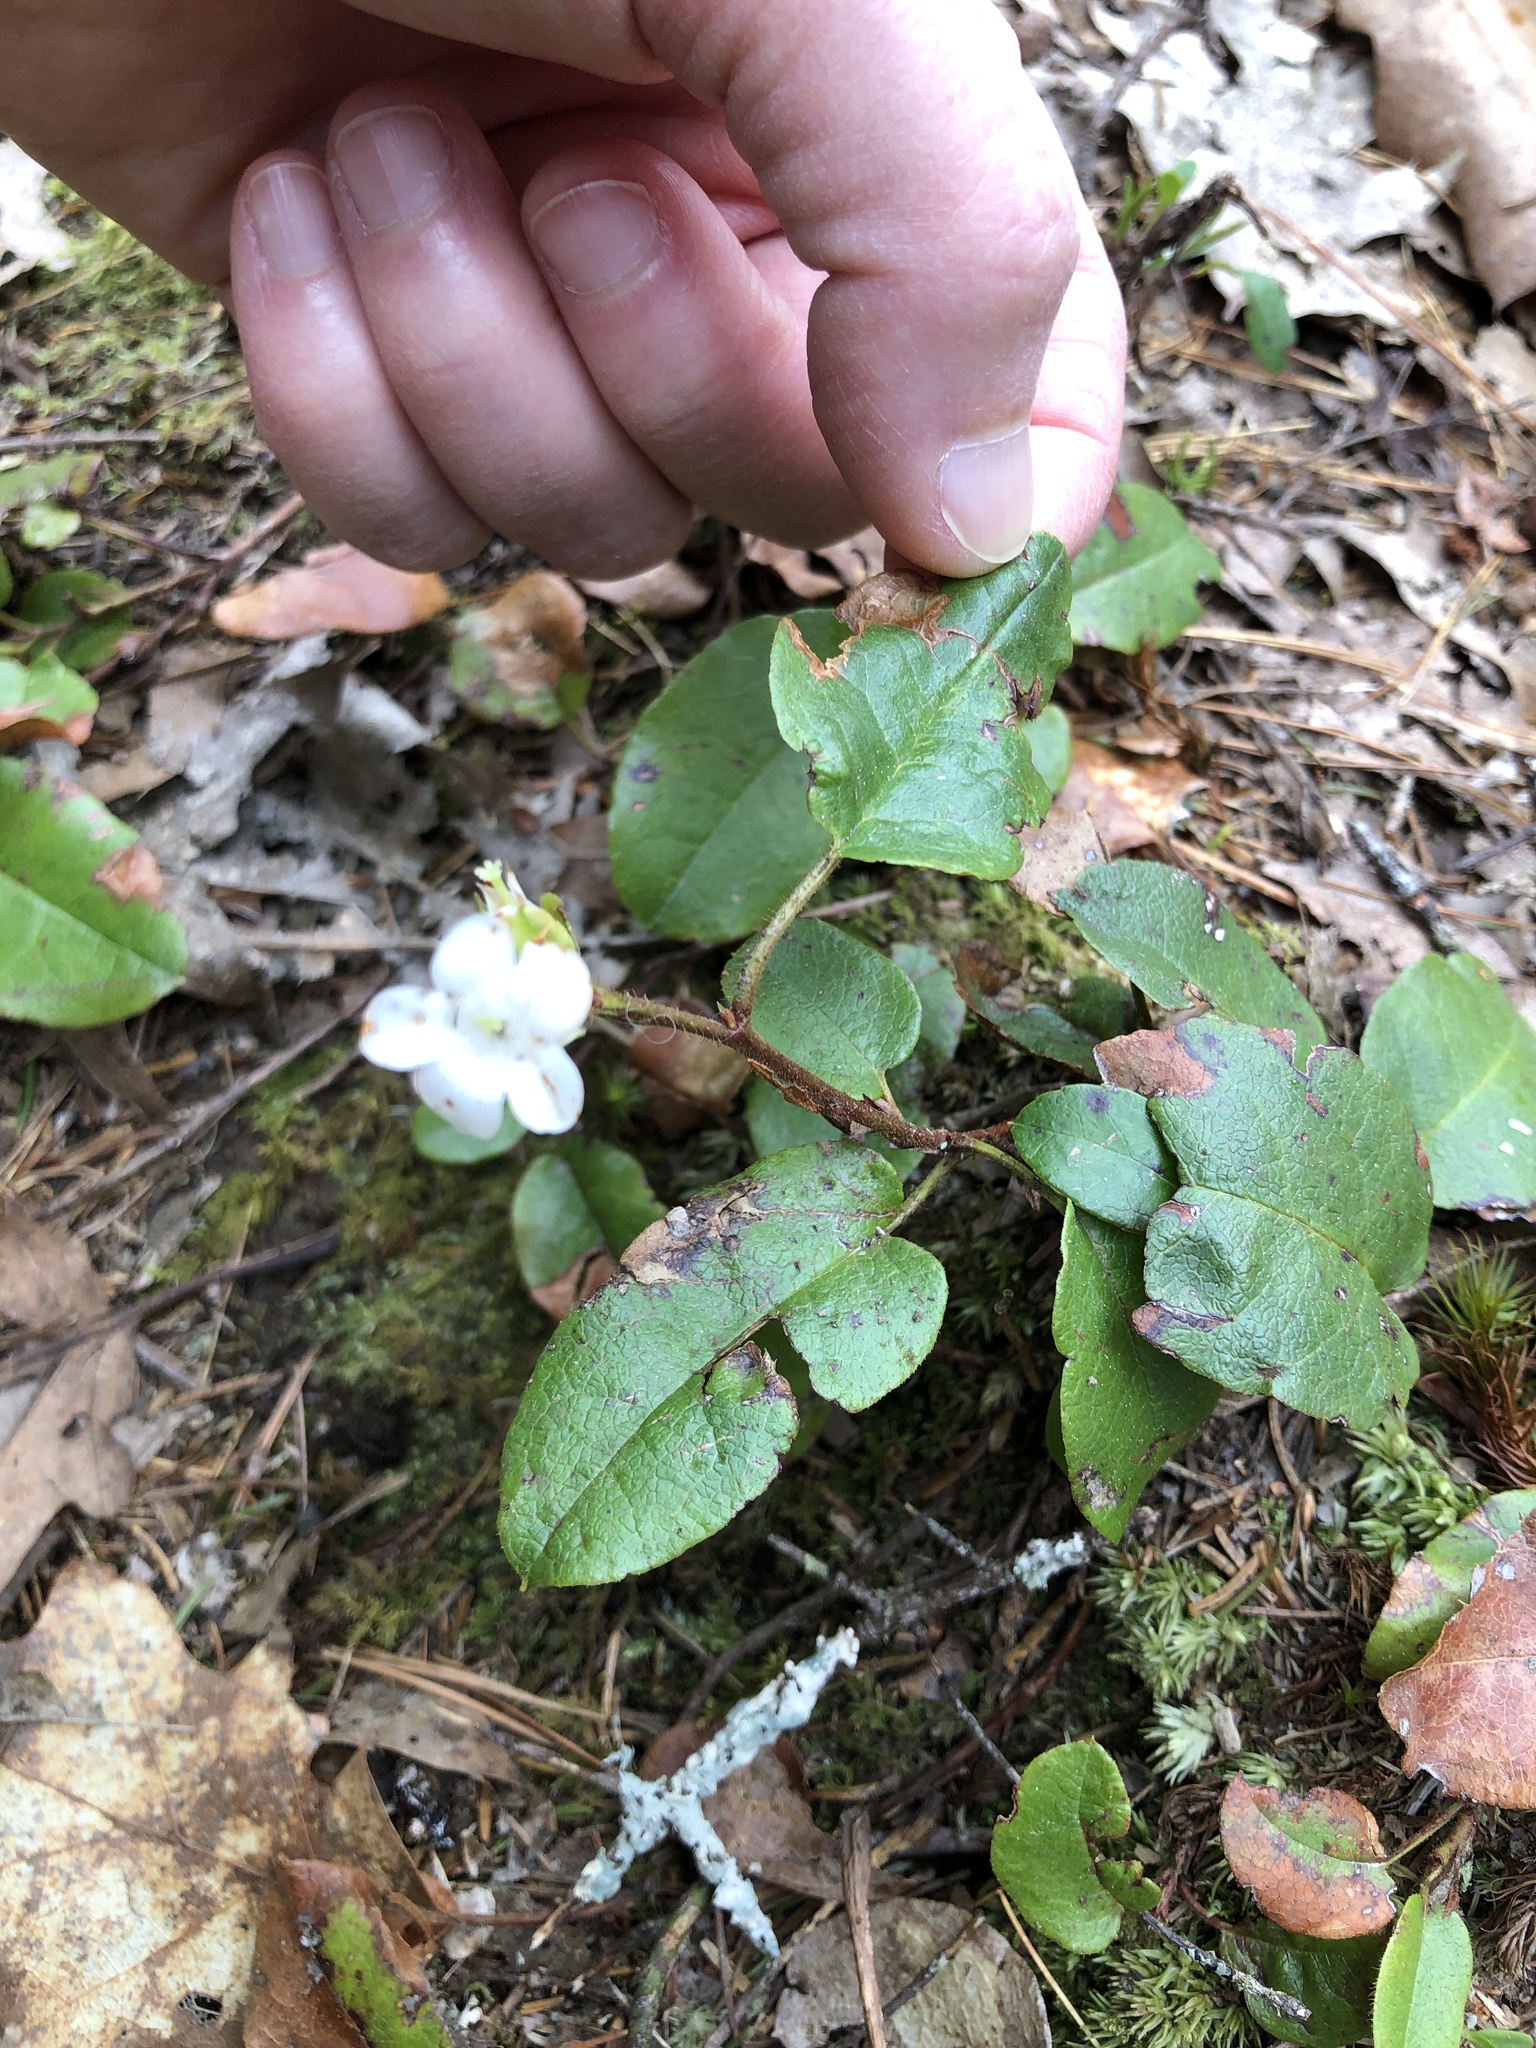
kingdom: Plantae
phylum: Tracheophyta
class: Magnoliopsida
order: Ericales
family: Ericaceae
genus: Epigaea
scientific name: Epigaea repens
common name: Gravelroot
